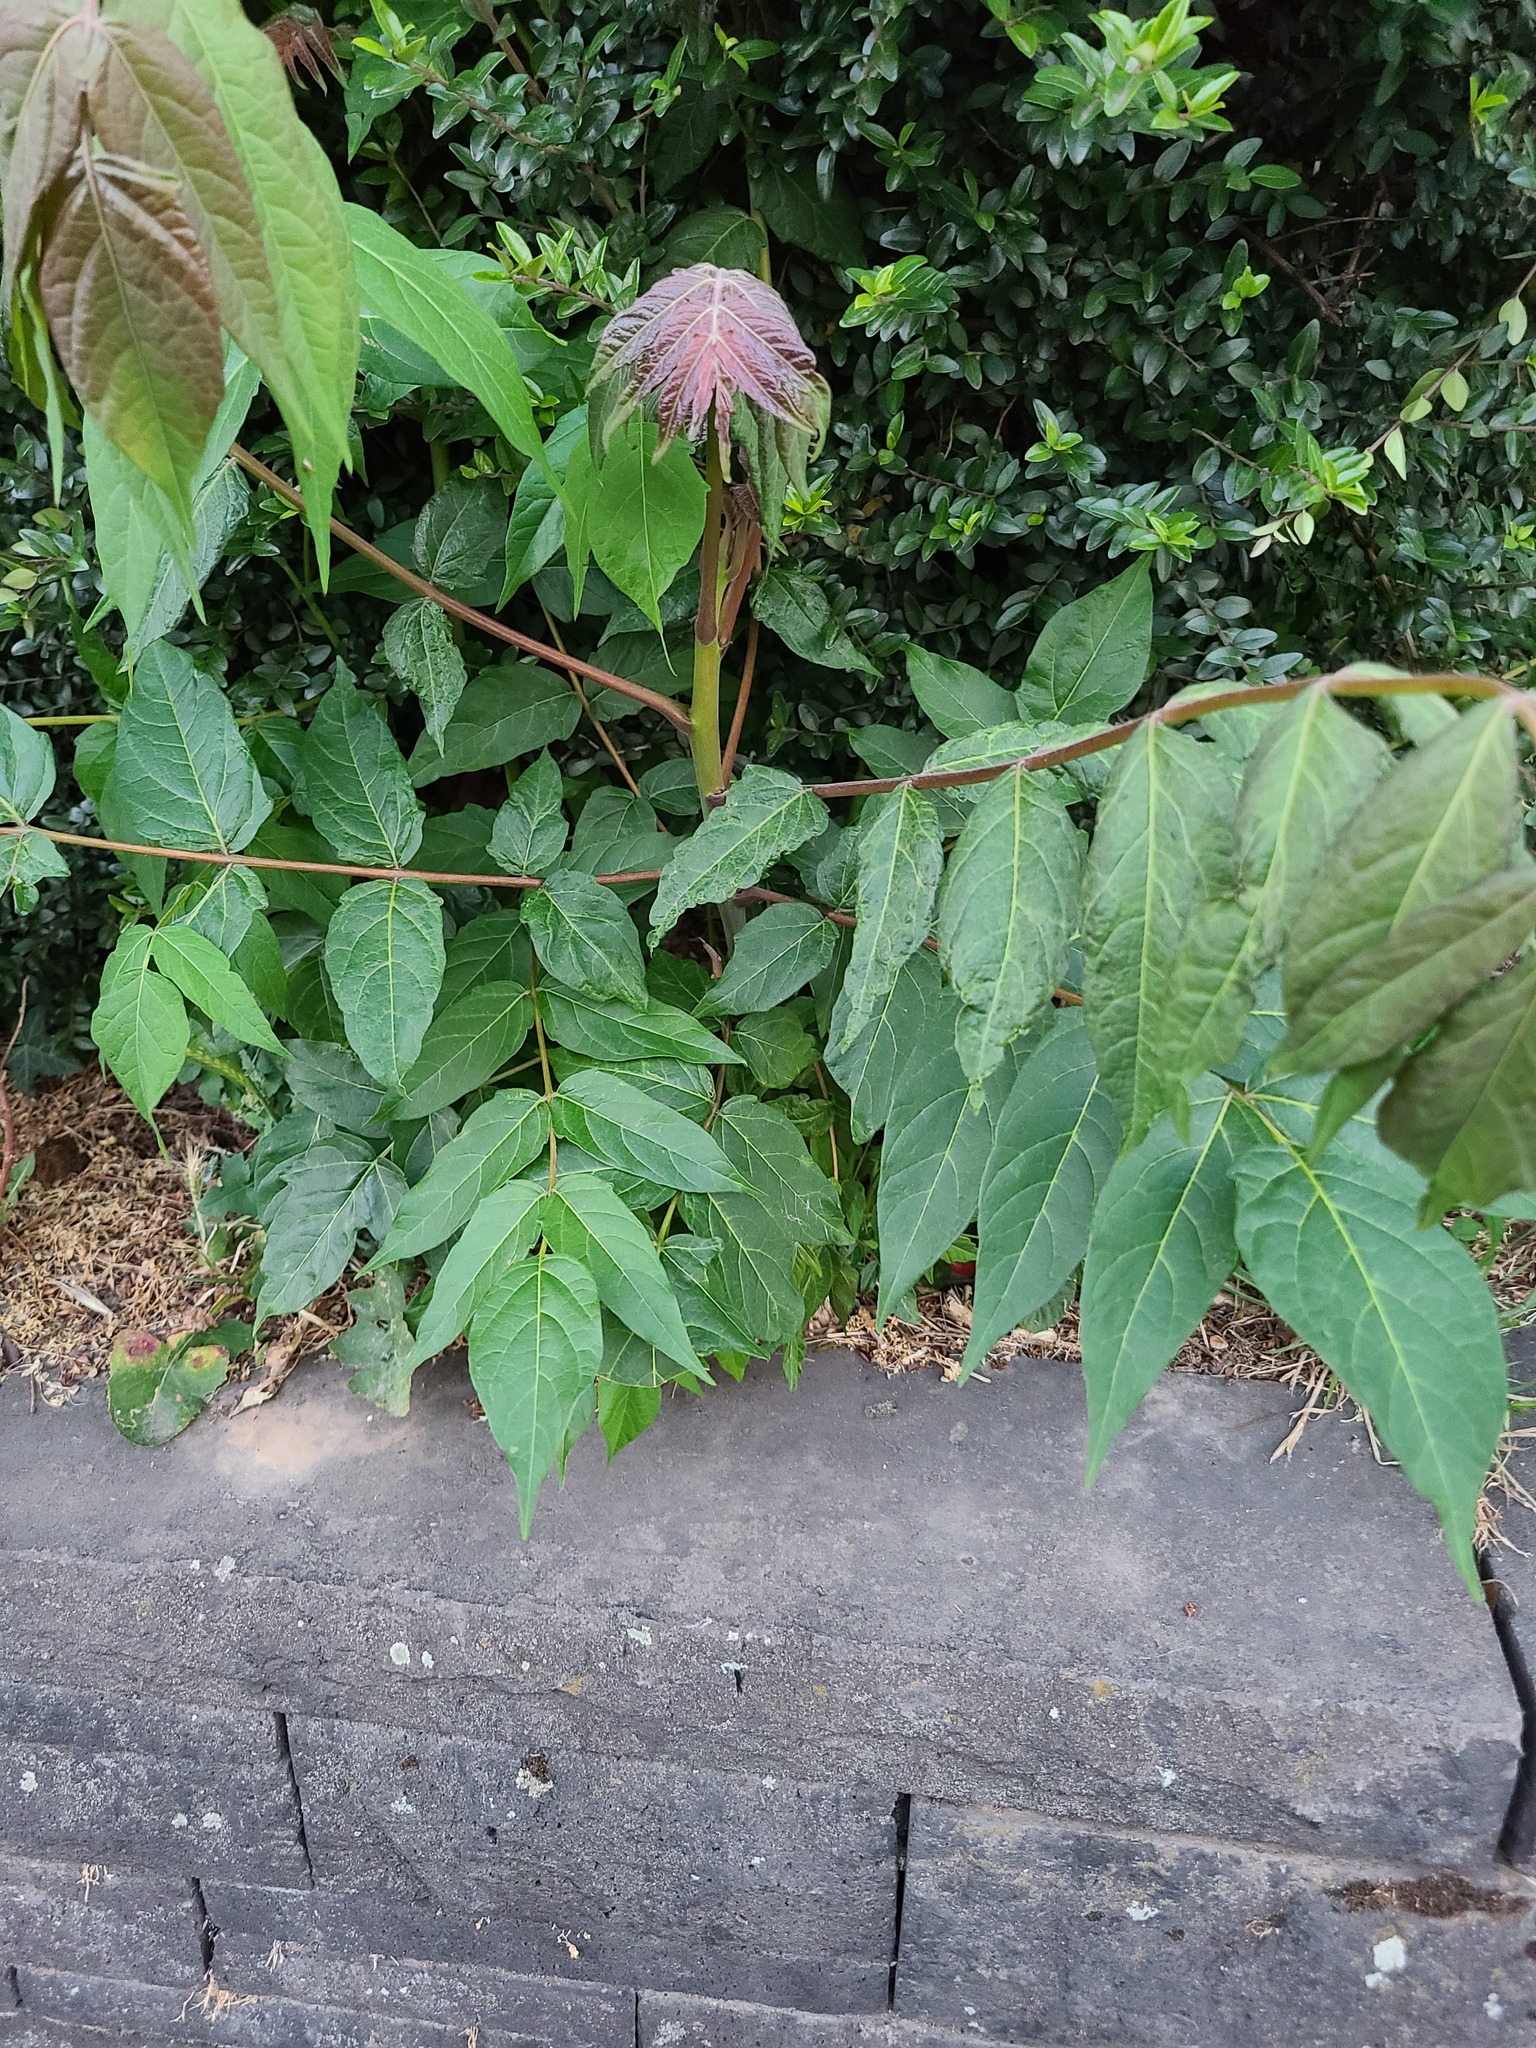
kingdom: Plantae
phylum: Tracheophyta
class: Magnoliopsida
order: Sapindales
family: Simaroubaceae
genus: Ailanthus
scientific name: Ailanthus altissima
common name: Tree-of-heaven
